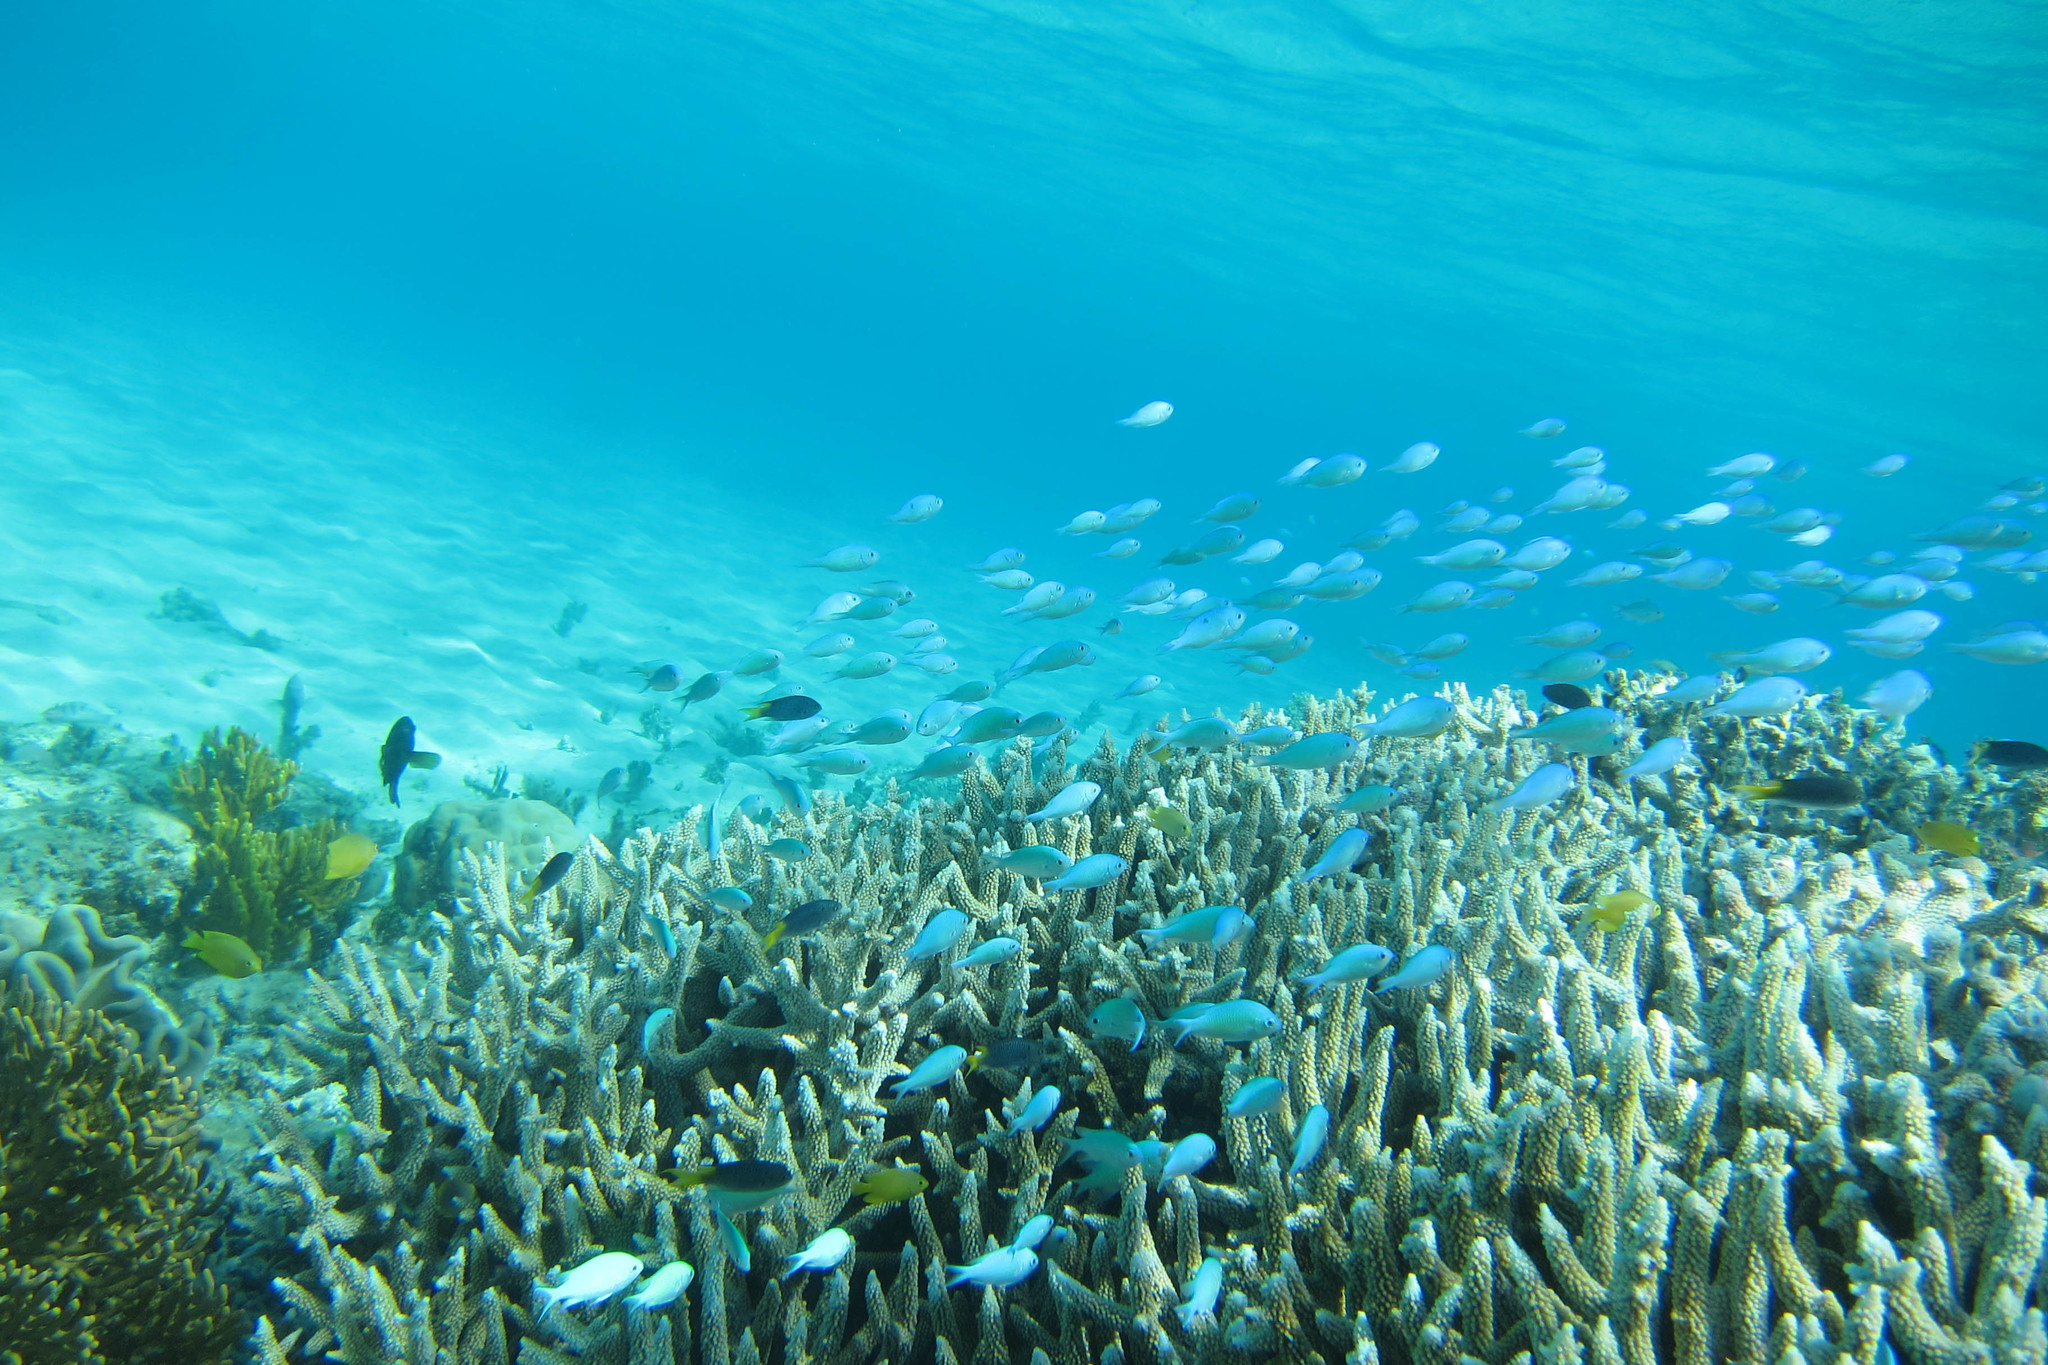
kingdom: Animalia
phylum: Chordata
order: Perciformes
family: Pomacentridae
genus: Neopomacentrus
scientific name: Neopomacentrus azysron
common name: Yellow-tail damsel
